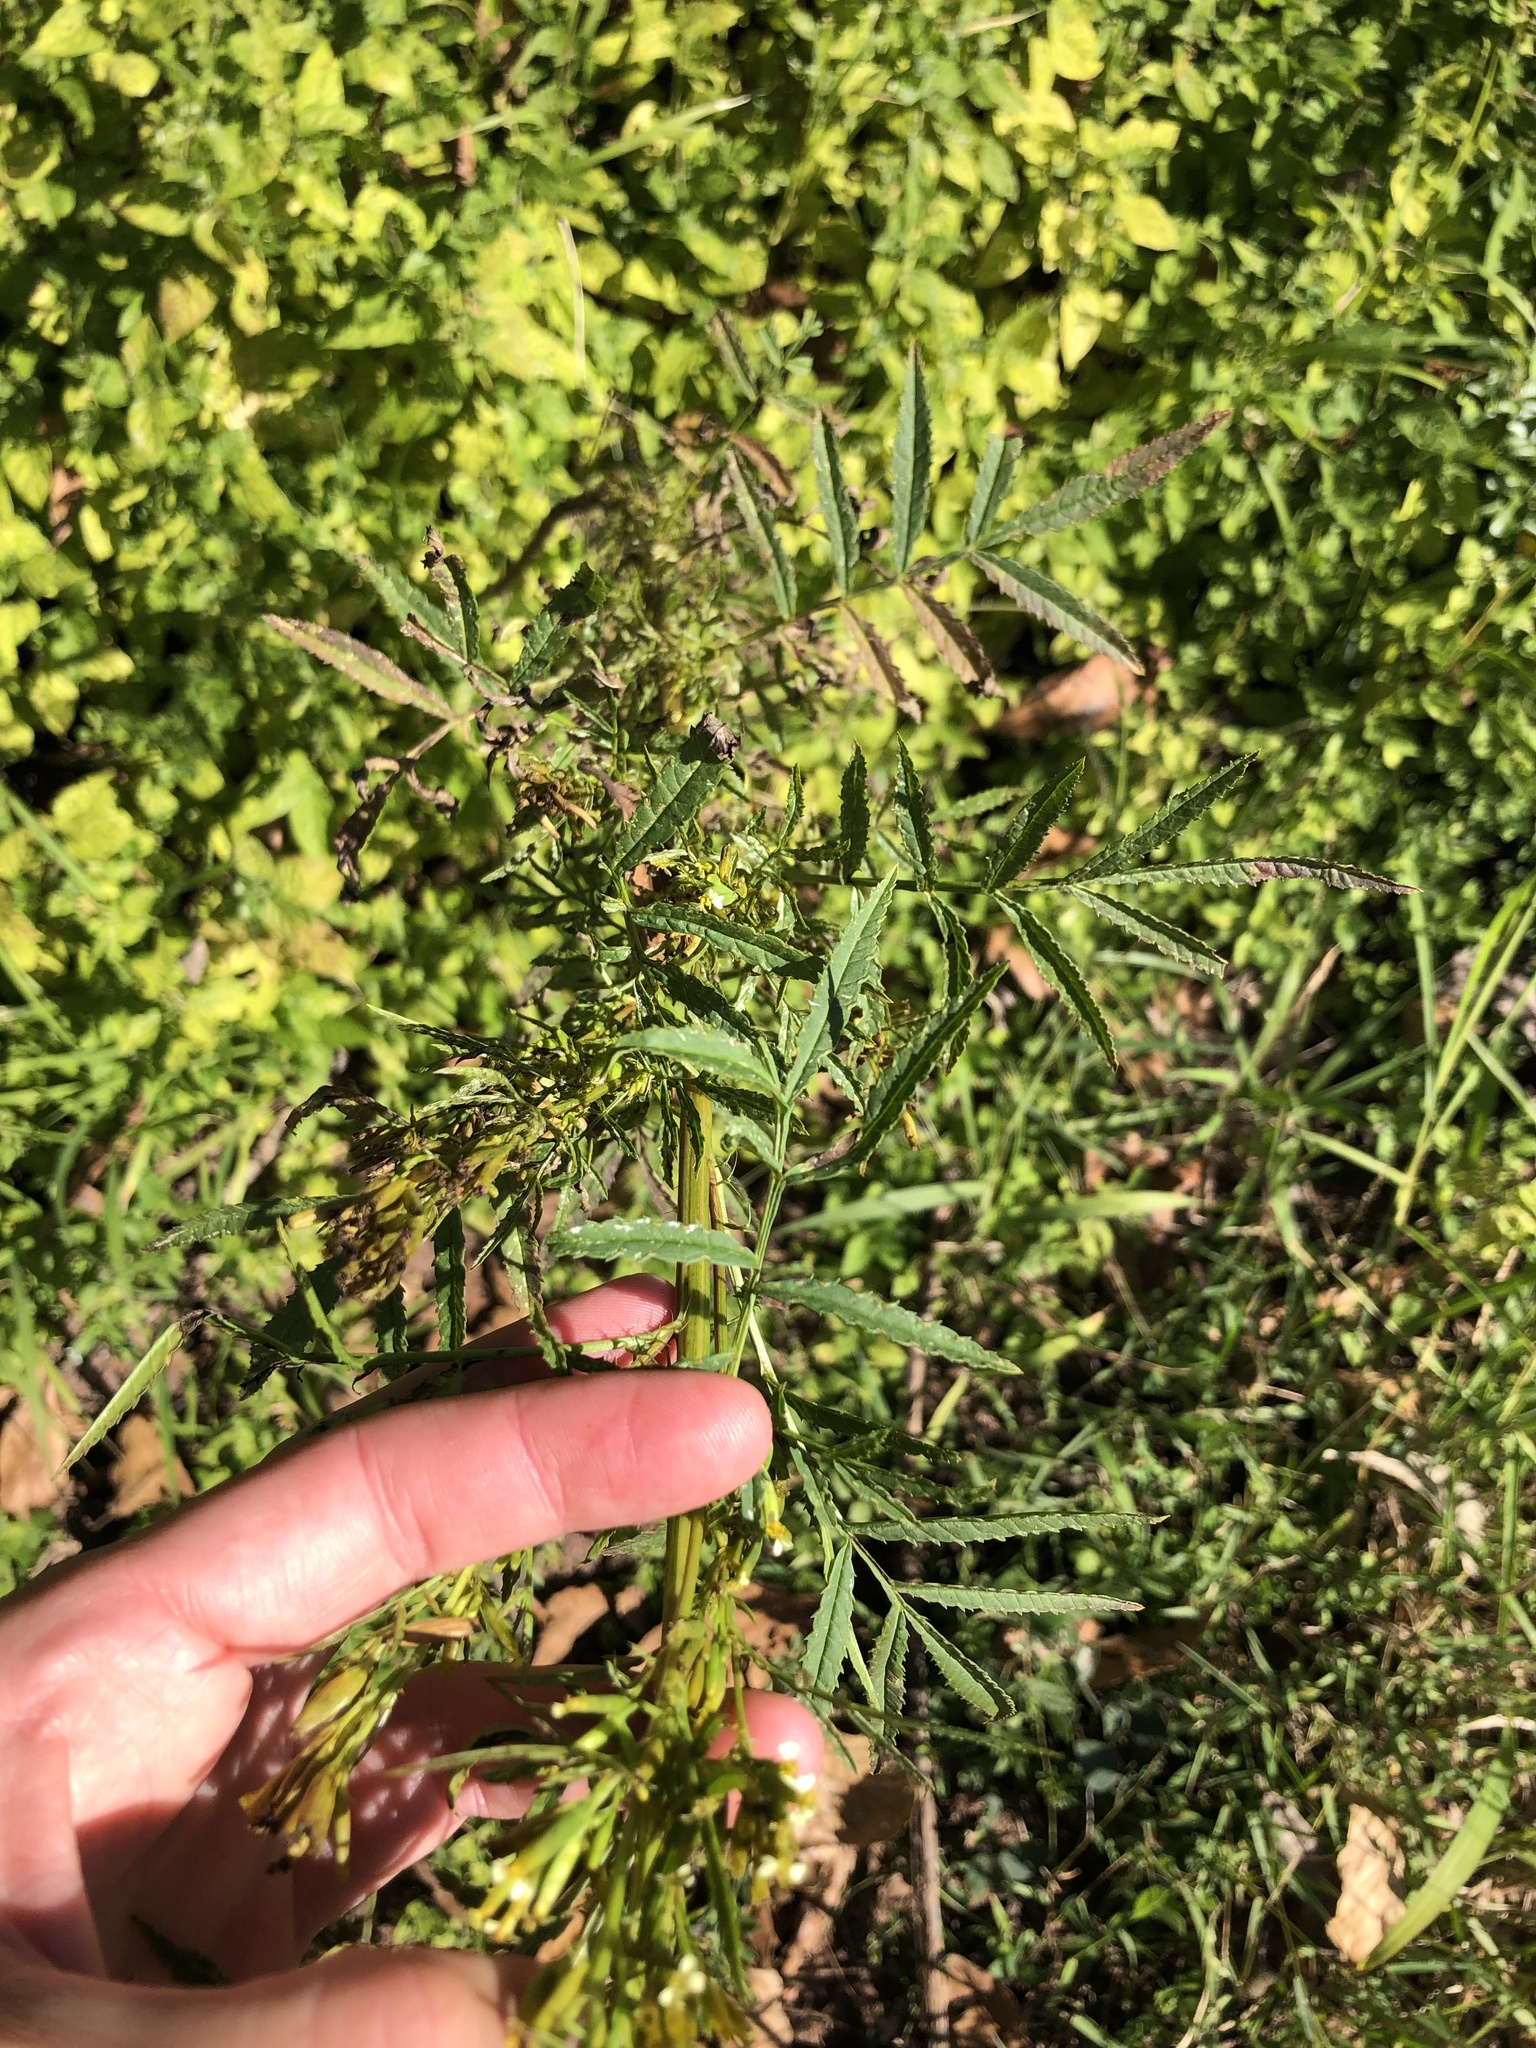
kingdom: Plantae
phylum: Tracheophyta
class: Magnoliopsida
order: Asterales
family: Asteraceae
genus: Tagetes
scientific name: Tagetes minuta
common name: Muster john henry
